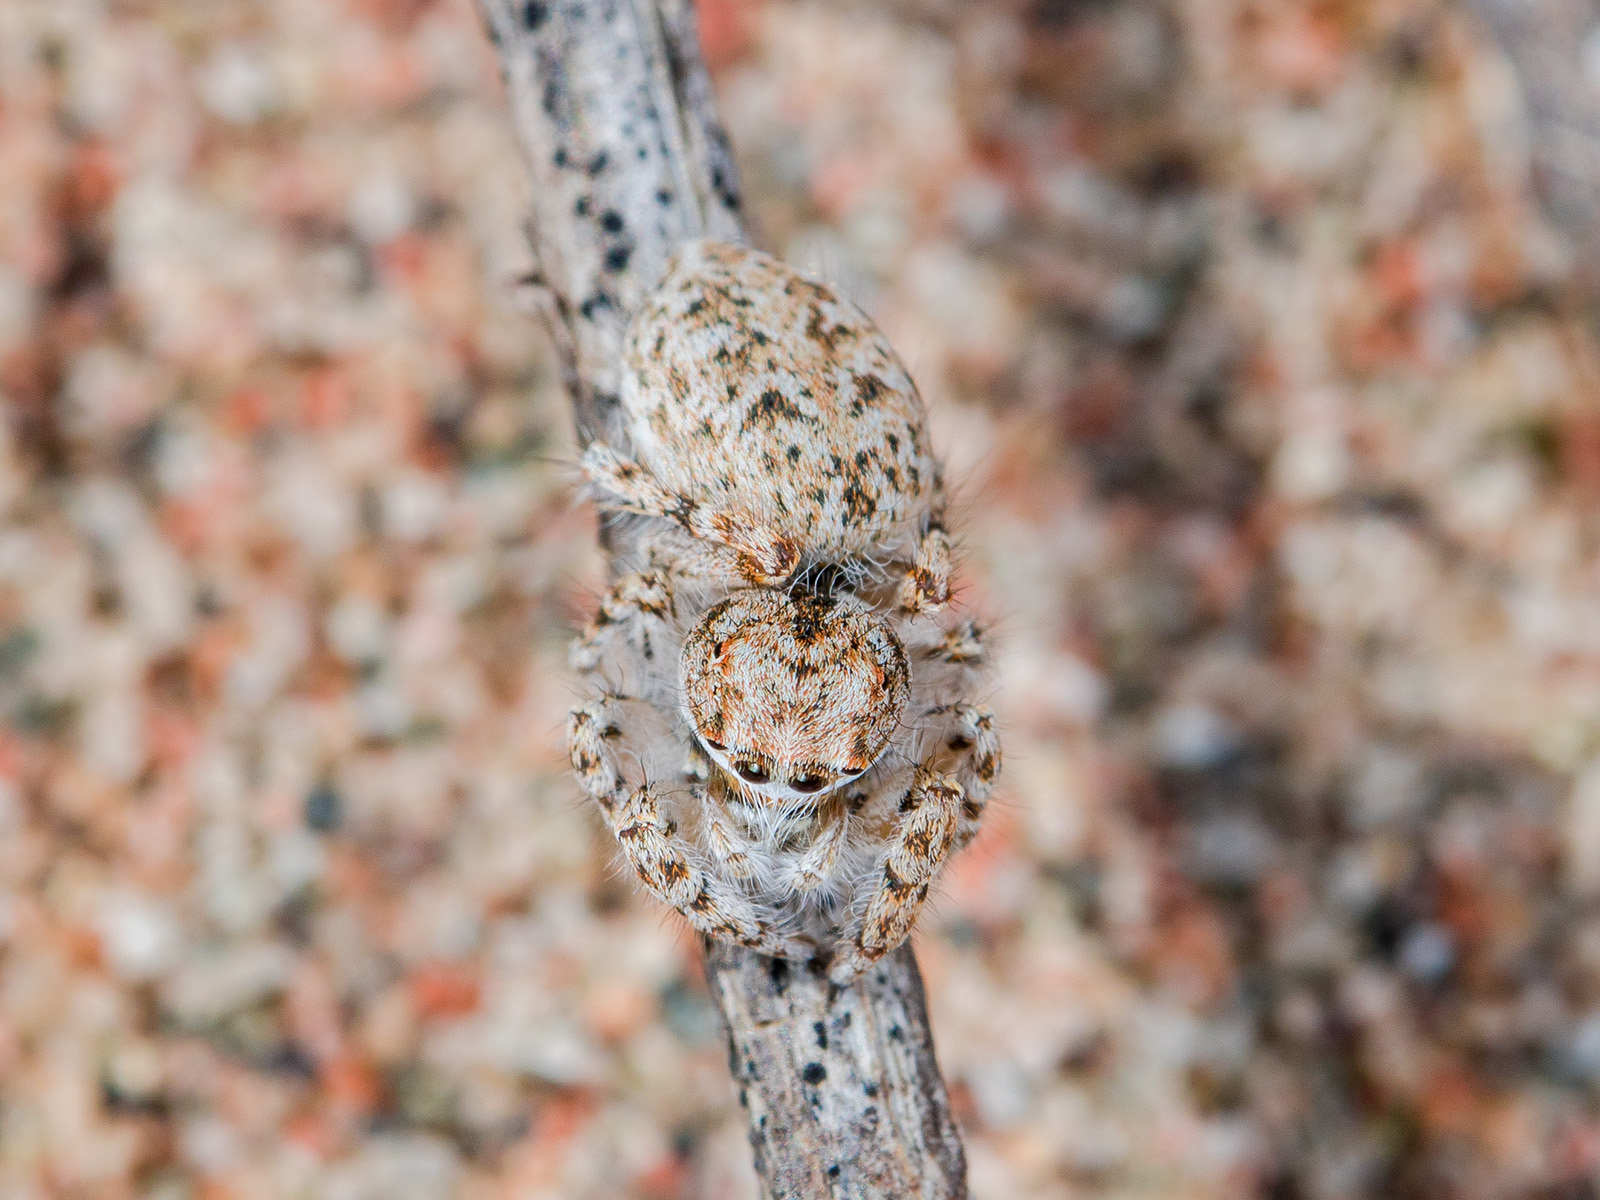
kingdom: Animalia
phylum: Arthropoda
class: Arachnida
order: Araneae
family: Salticidae
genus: Yllenus
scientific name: Yllenus uiguricus
